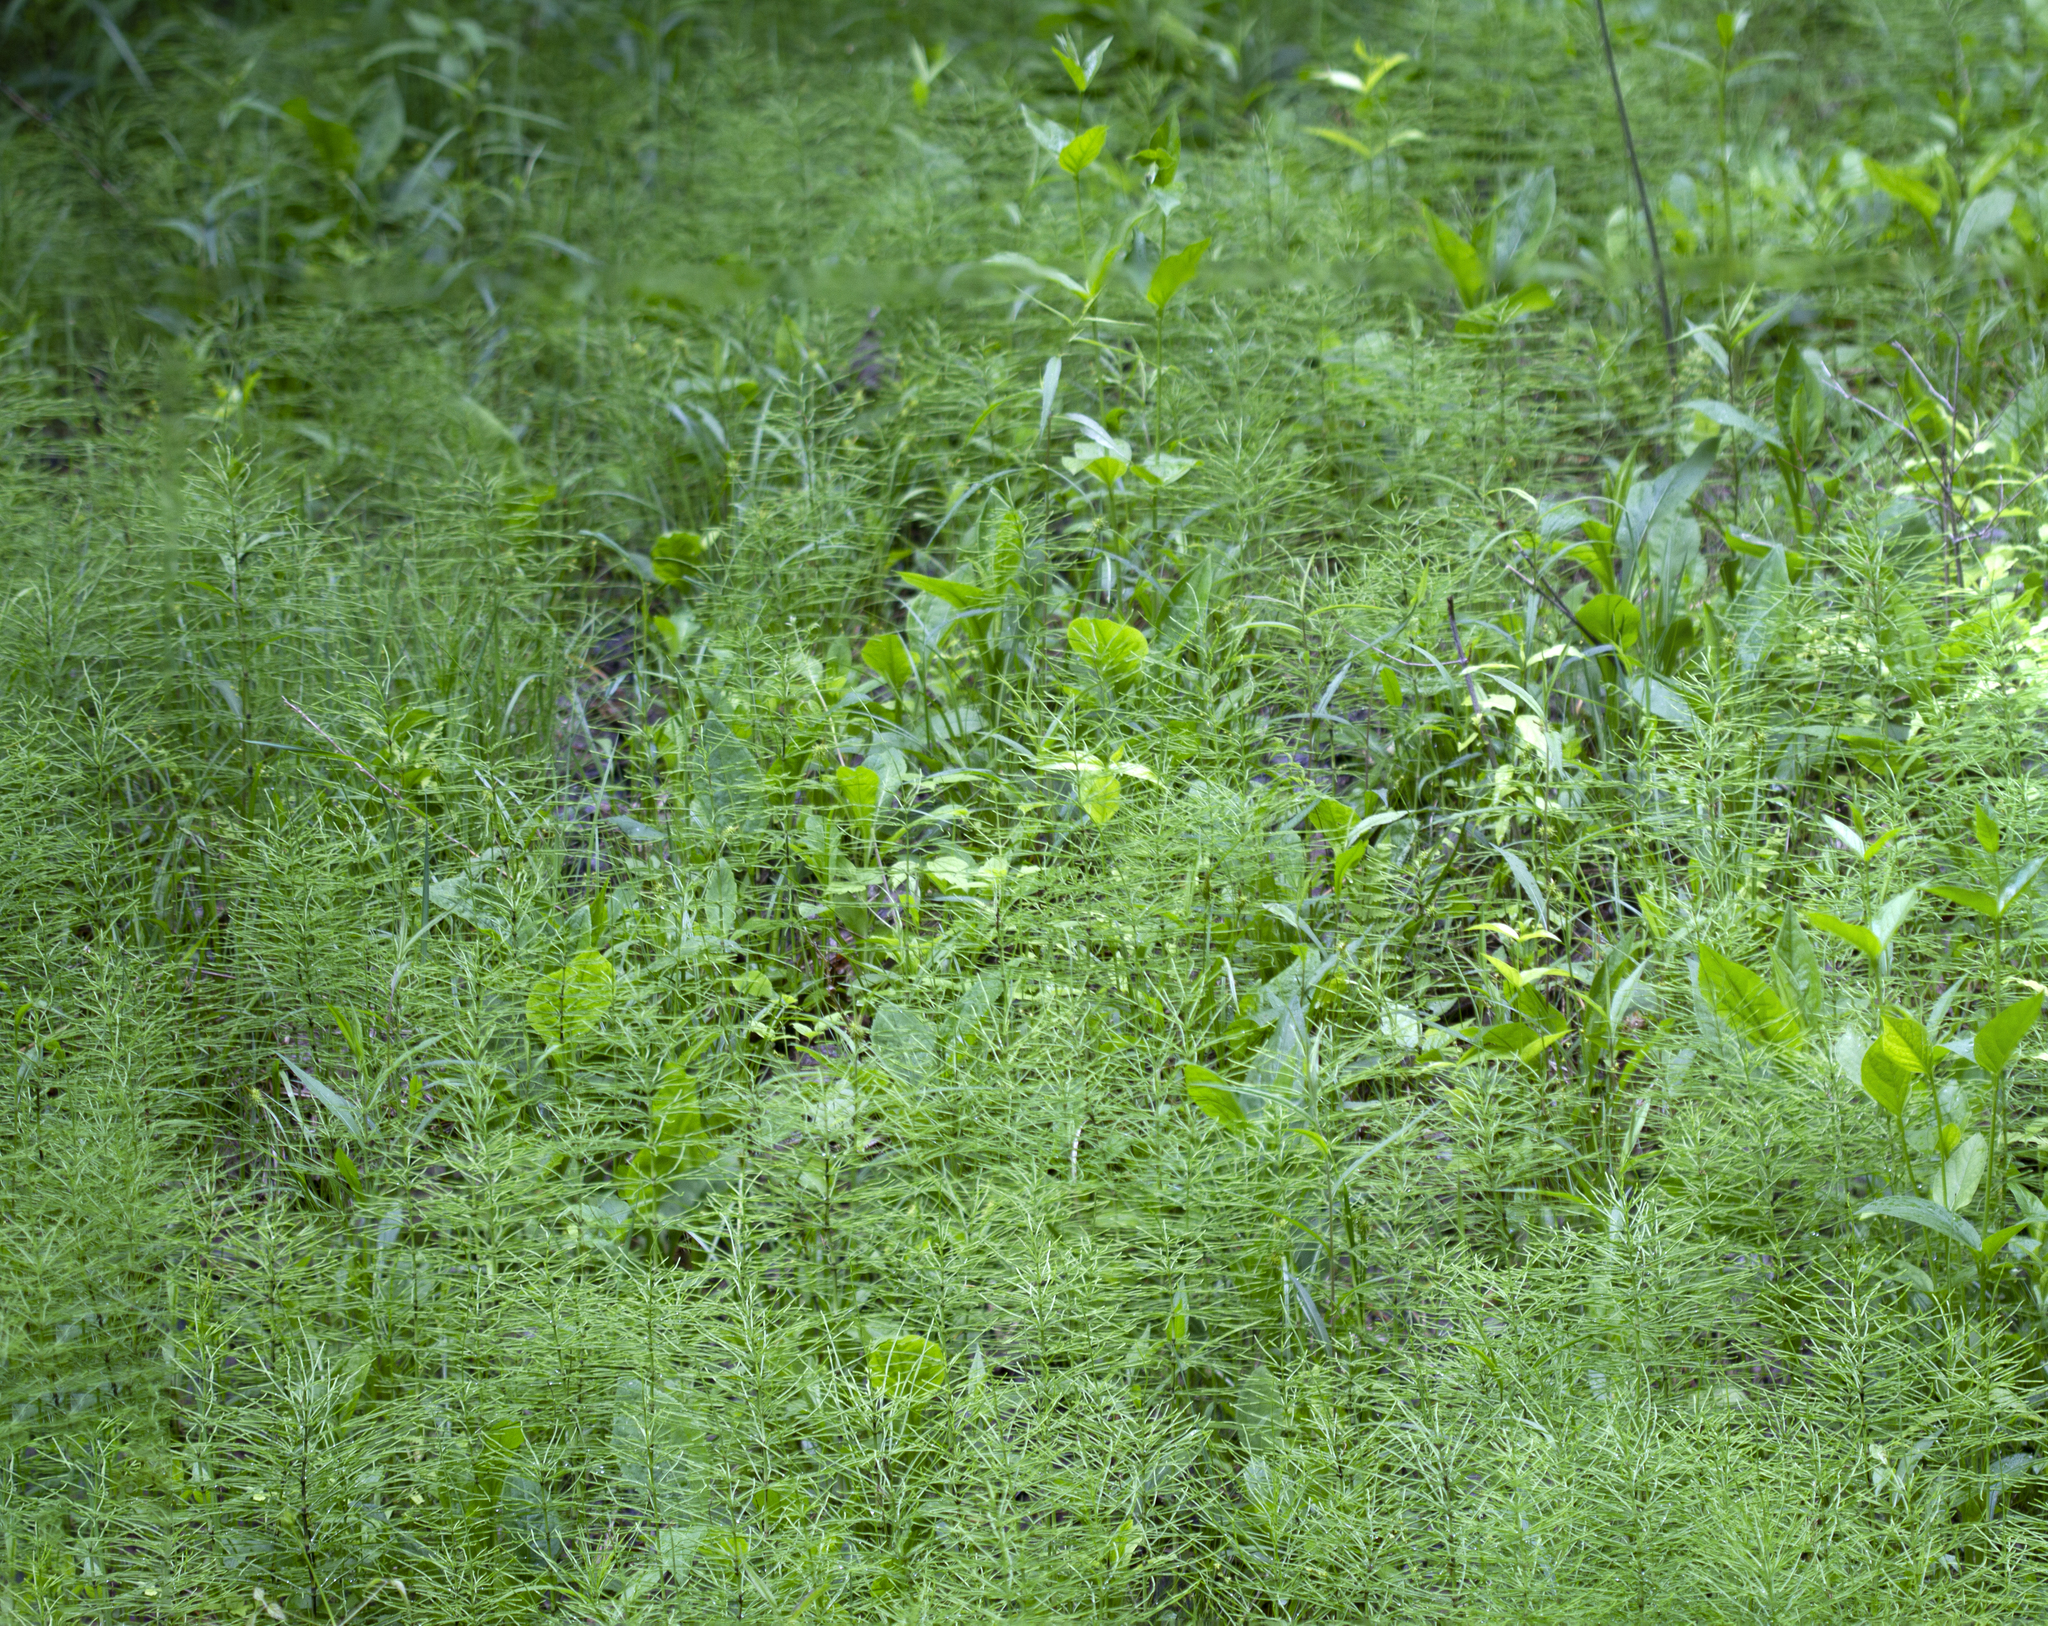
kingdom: Plantae
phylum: Tracheophyta
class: Polypodiopsida
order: Equisetales
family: Equisetaceae
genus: Equisetum
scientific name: Equisetum arvense
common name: Field horsetail
